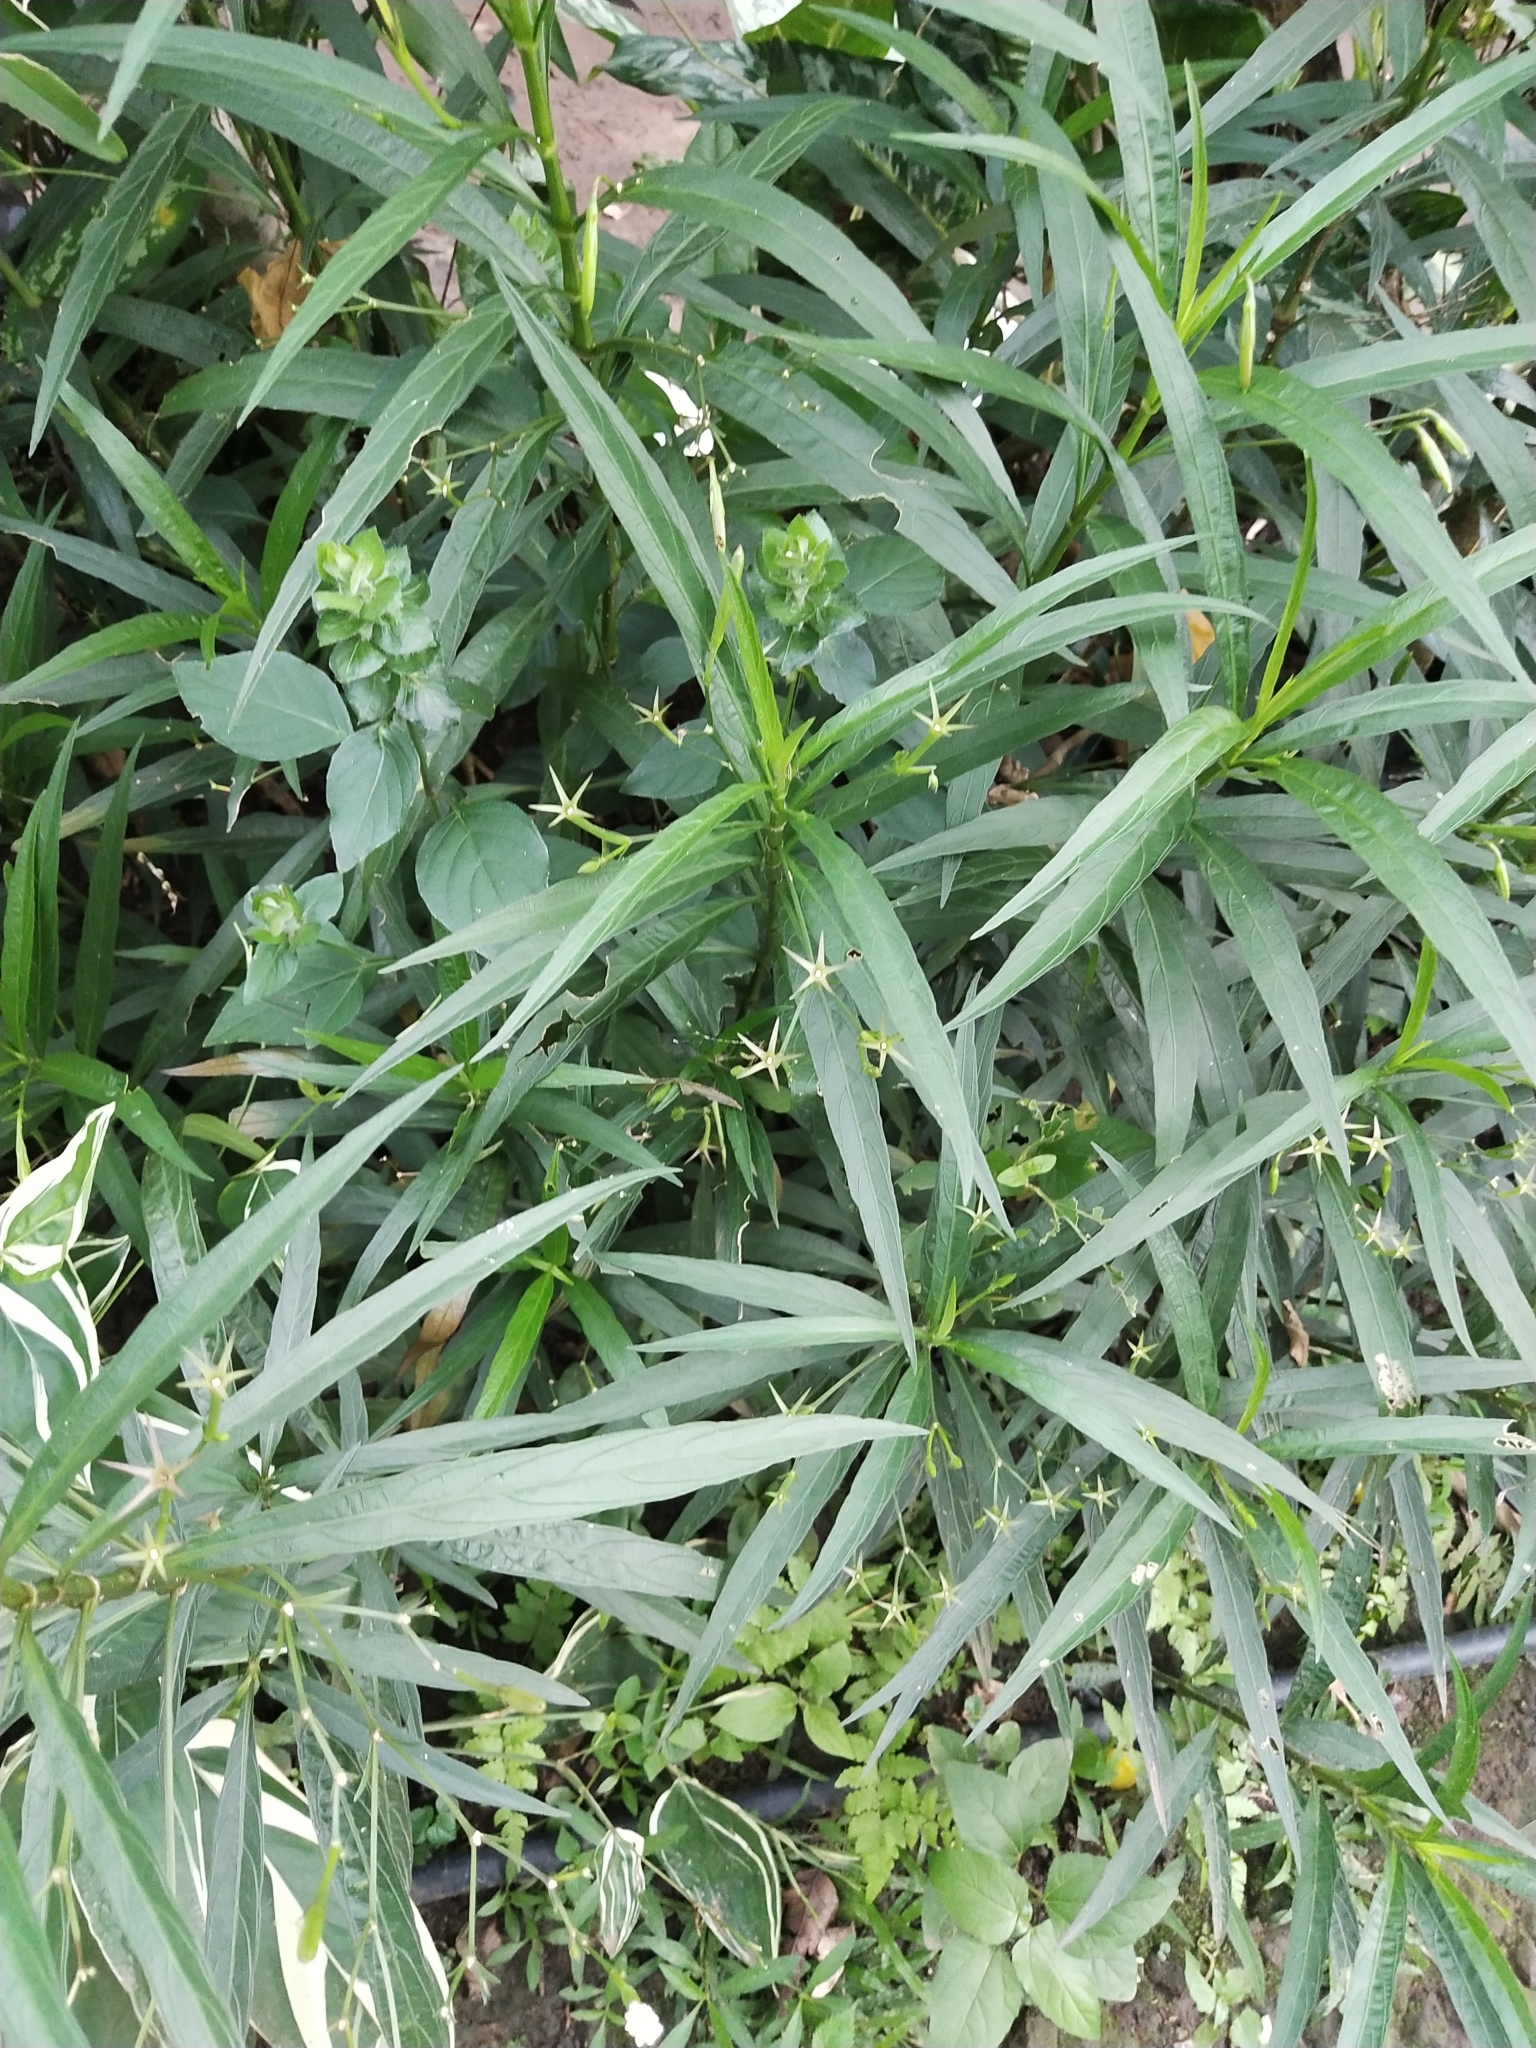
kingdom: Plantae
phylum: Tracheophyta
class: Magnoliopsida
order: Lamiales
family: Acanthaceae
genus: Ruellia
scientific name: Ruellia simplex
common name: Softseed wild petunia
